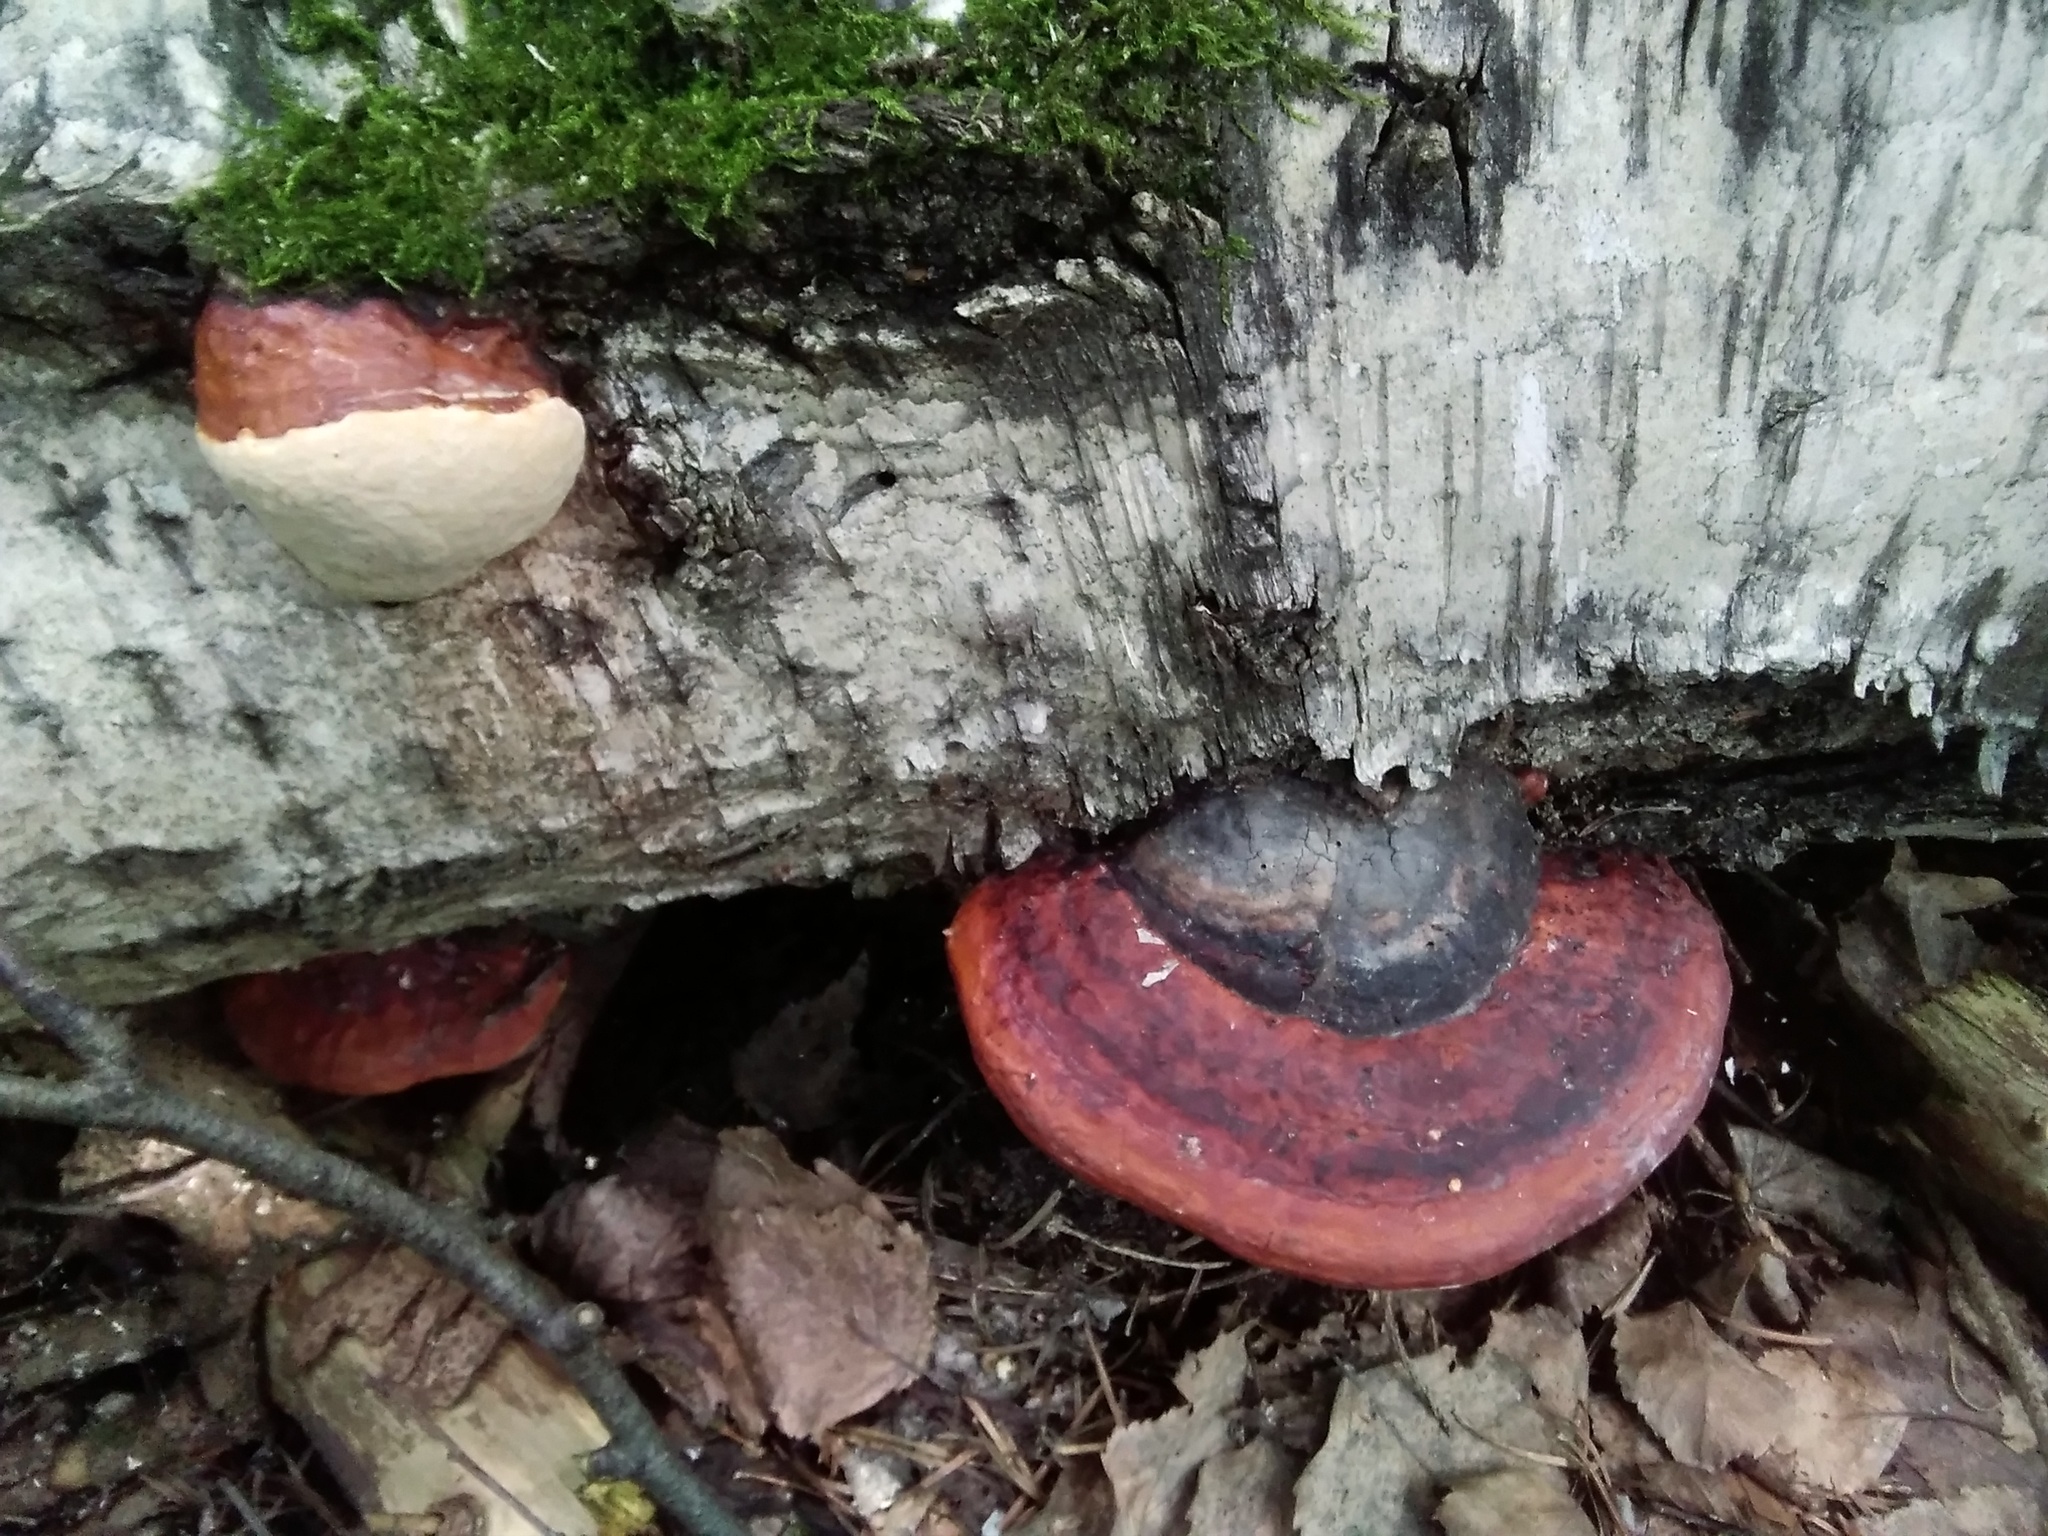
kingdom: Fungi
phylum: Basidiomycota
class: Agaricomycetes
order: Polyporales
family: Fomitopsidaceae
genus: Fomitopsis
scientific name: Fomitopsis pinicola
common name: Red-belted bracket
